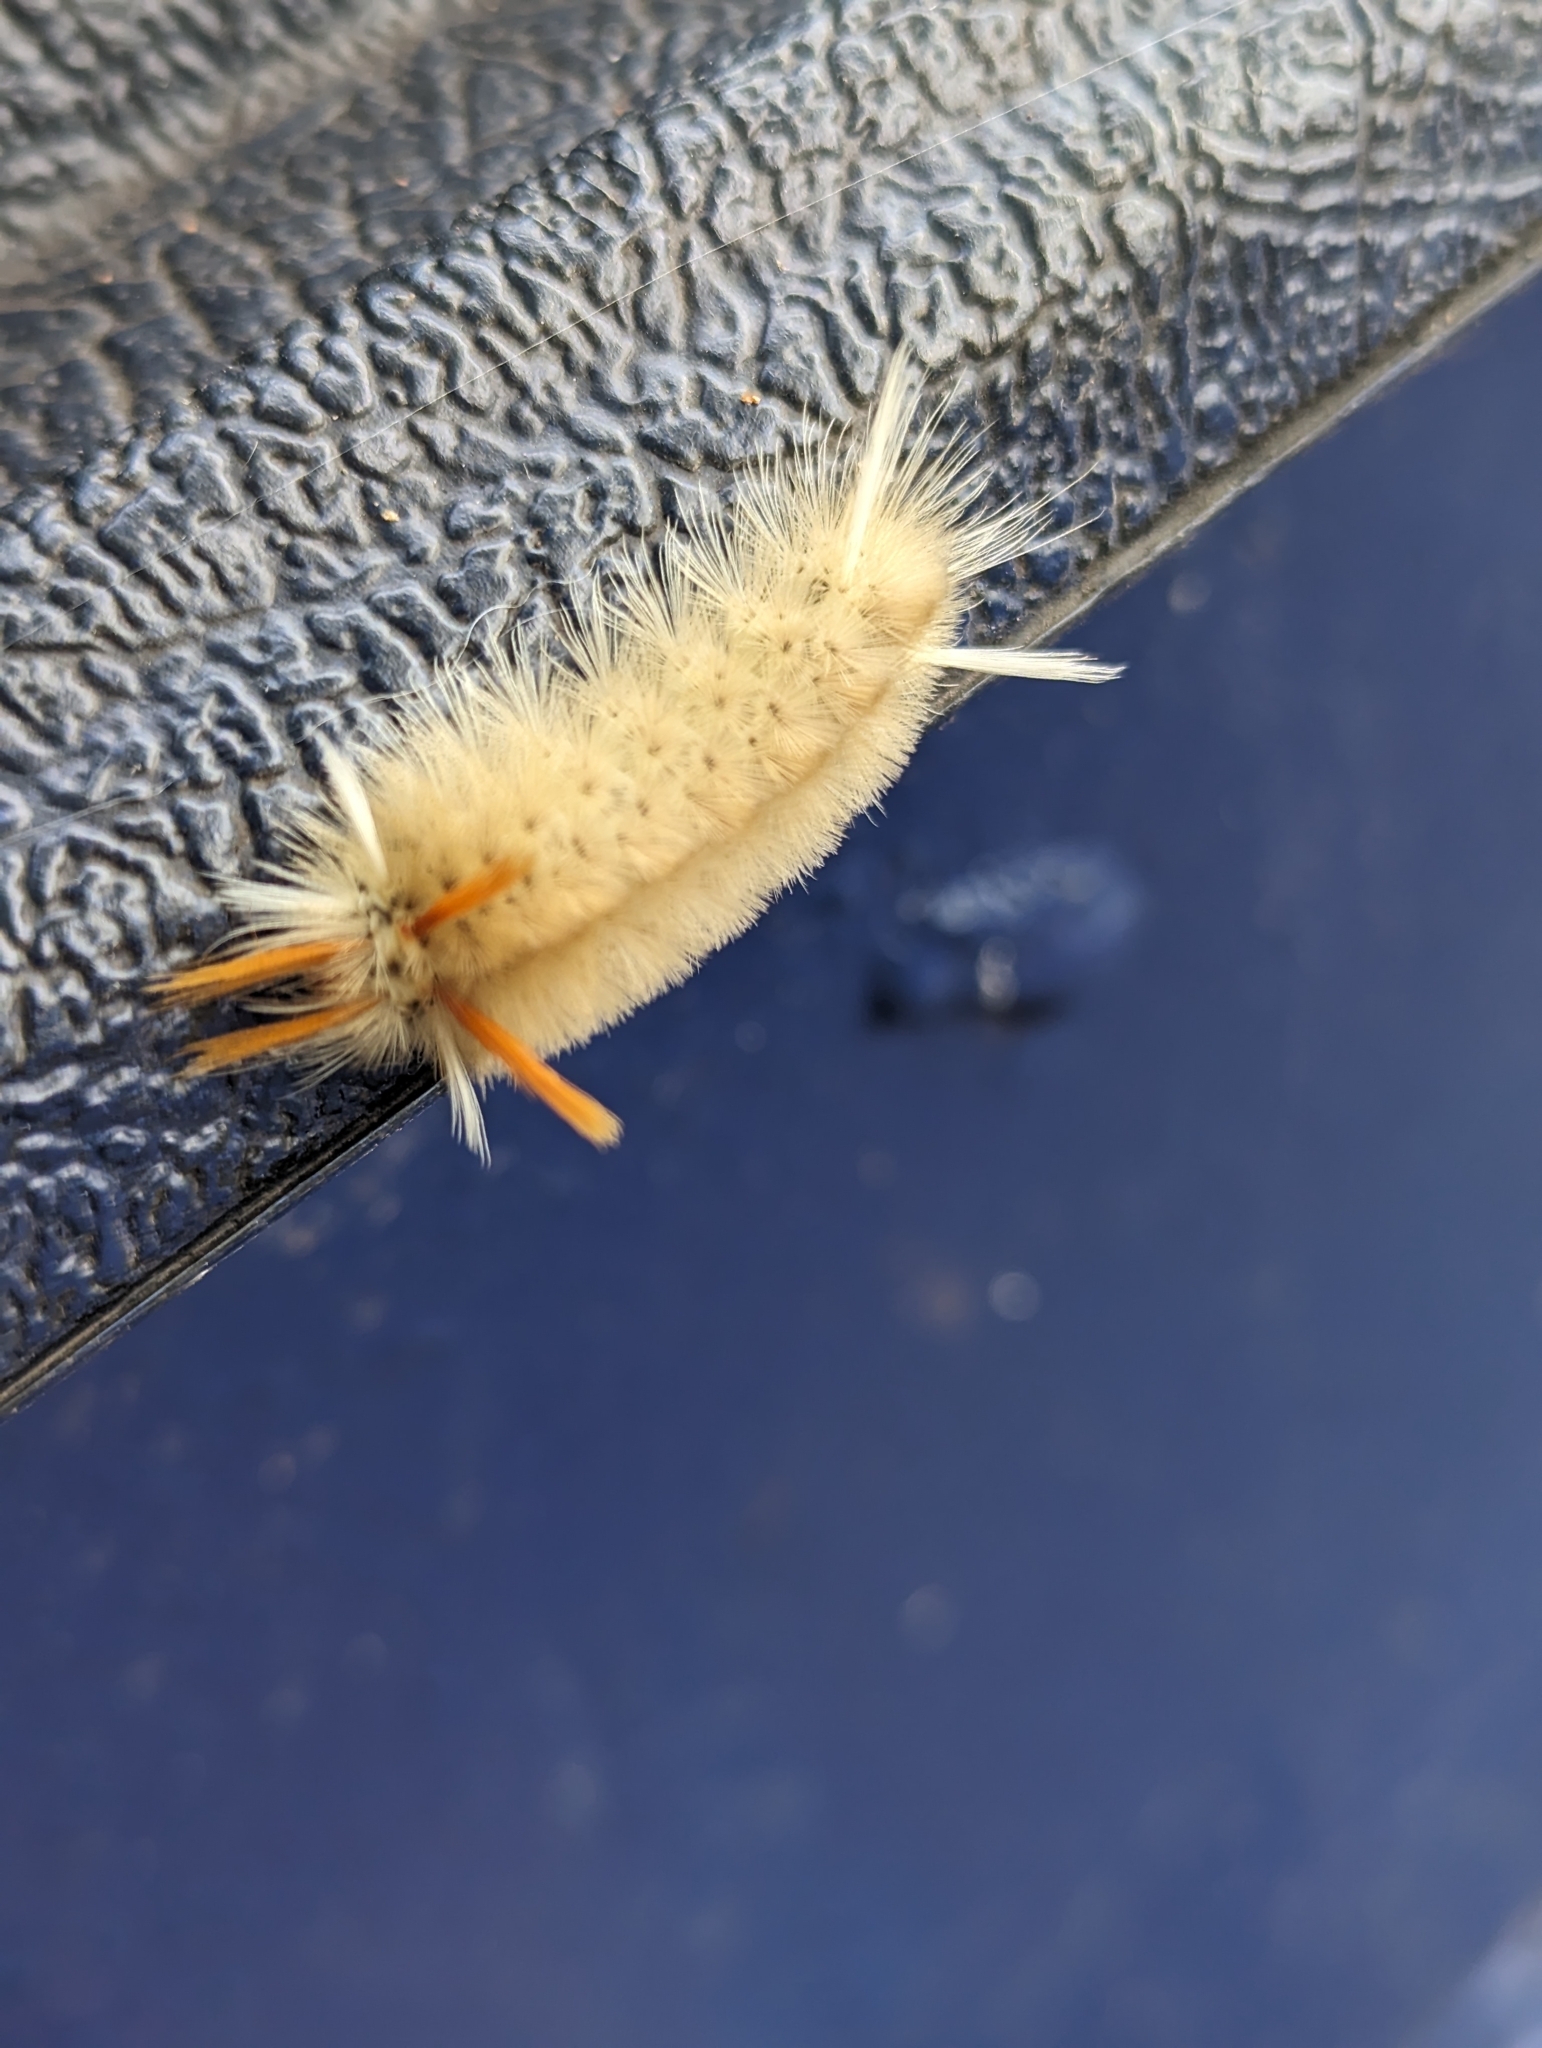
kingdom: Animalia
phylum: Arthropoda
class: Insecta
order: Lepidoptera
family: Erebidae
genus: Halysidota
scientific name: Halysidota harrisii
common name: Sycamore tussock moth
